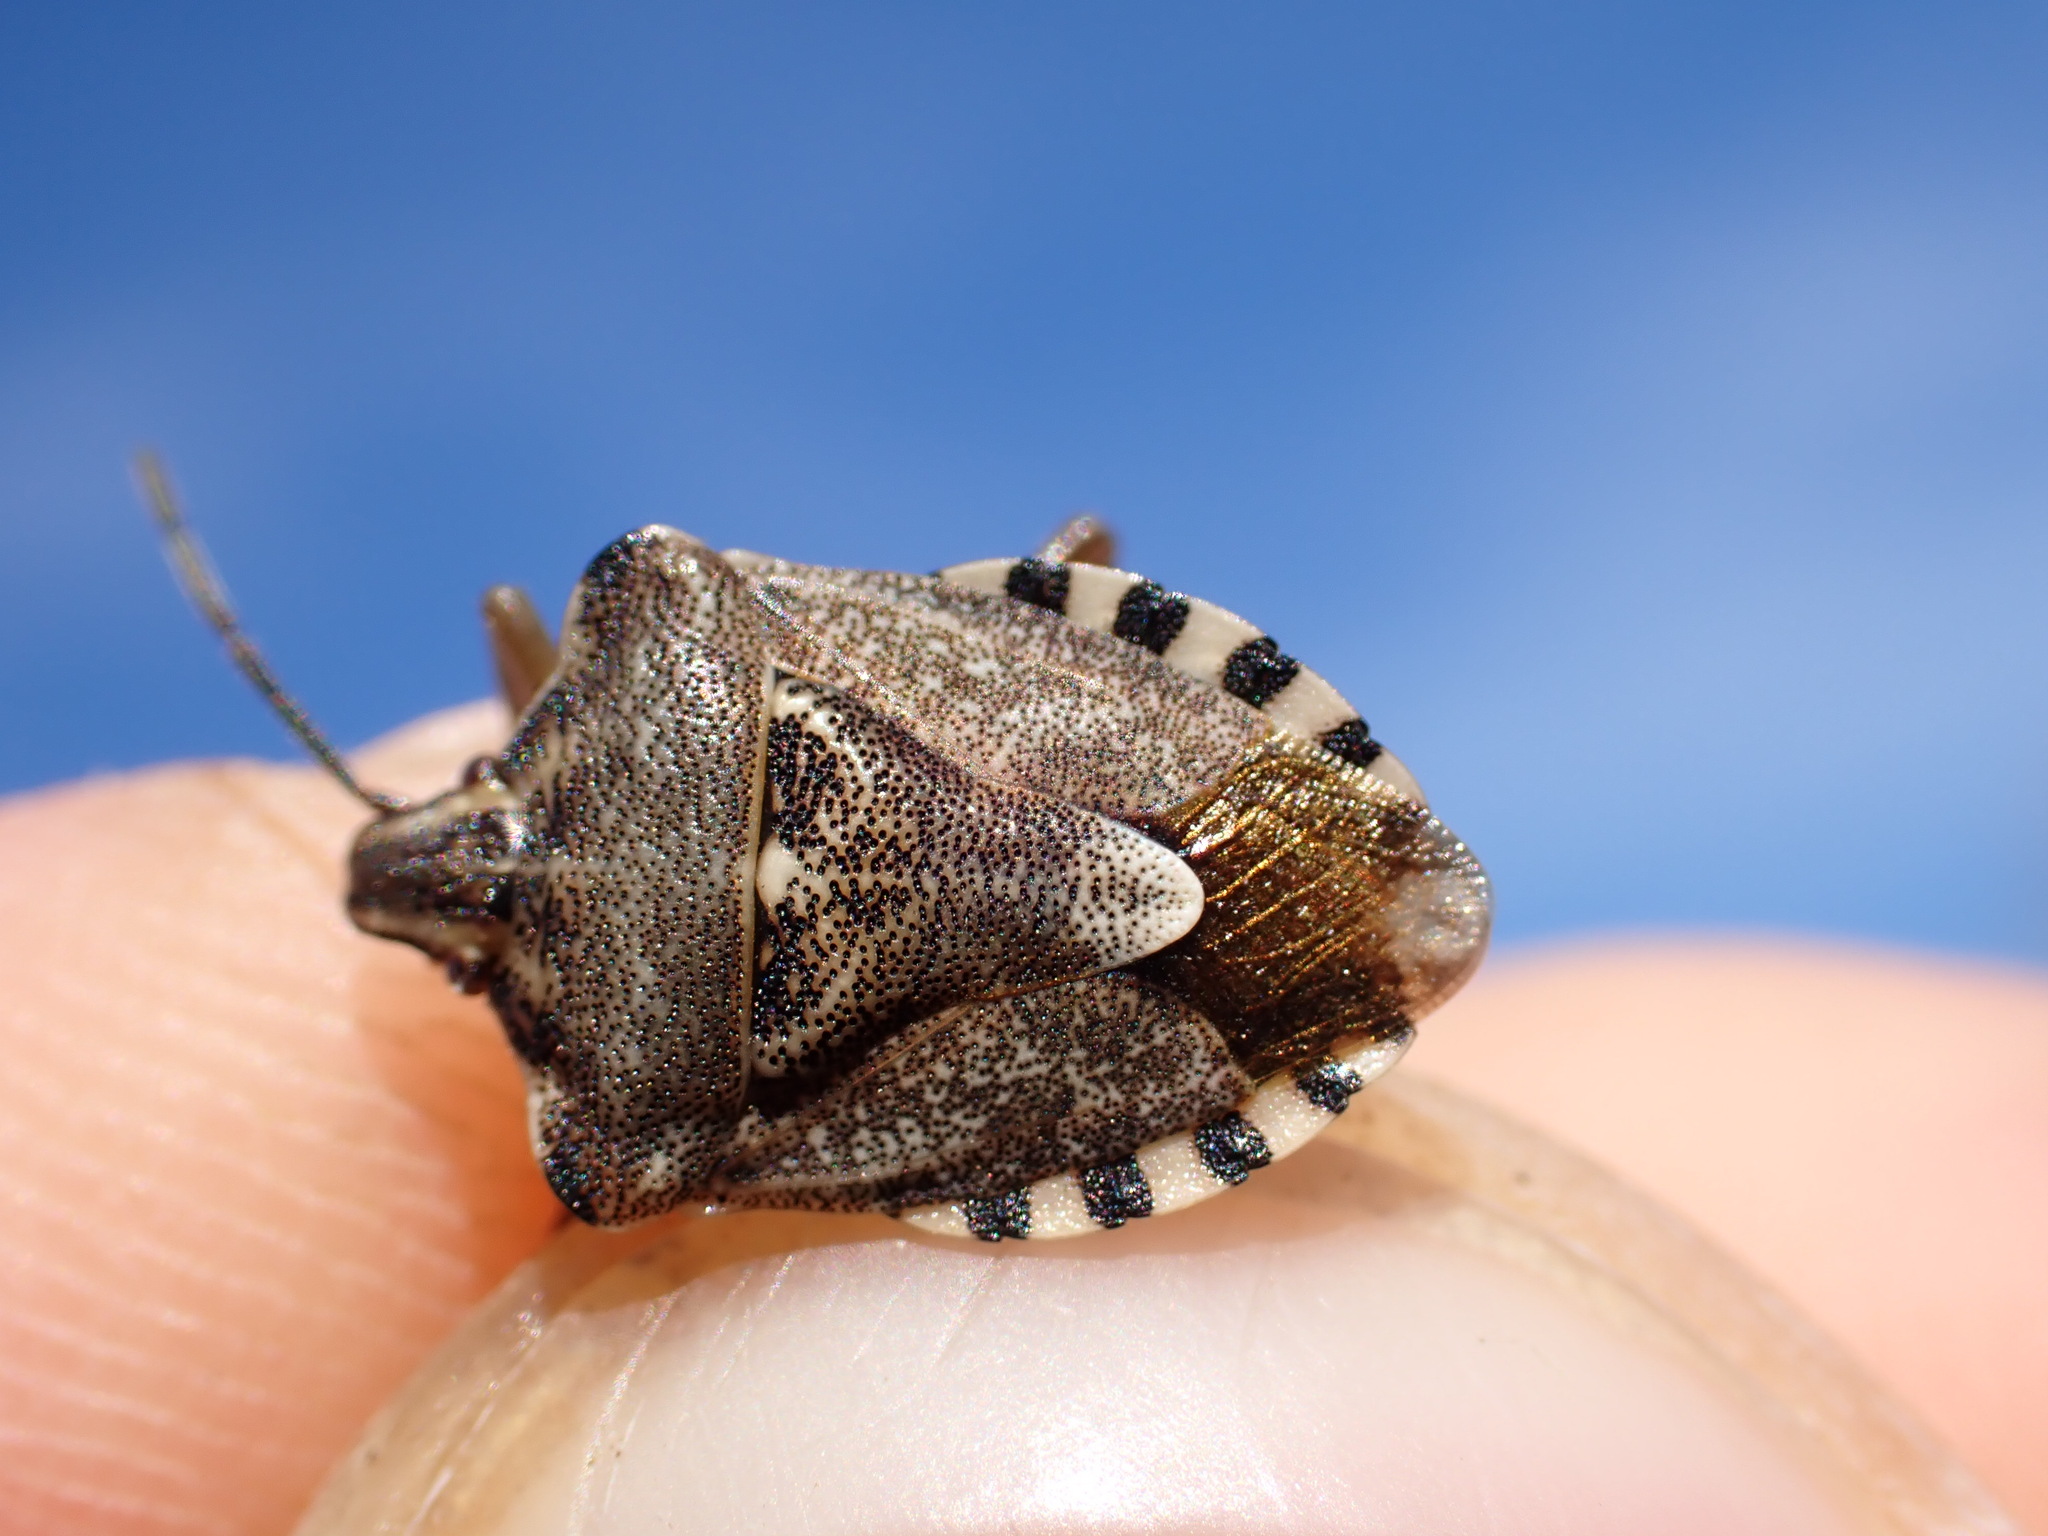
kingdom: Animalia
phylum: Arthropoda
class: Insecta
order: Hemiptera
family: Miridae
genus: Orthops
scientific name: Orthops kalmii
